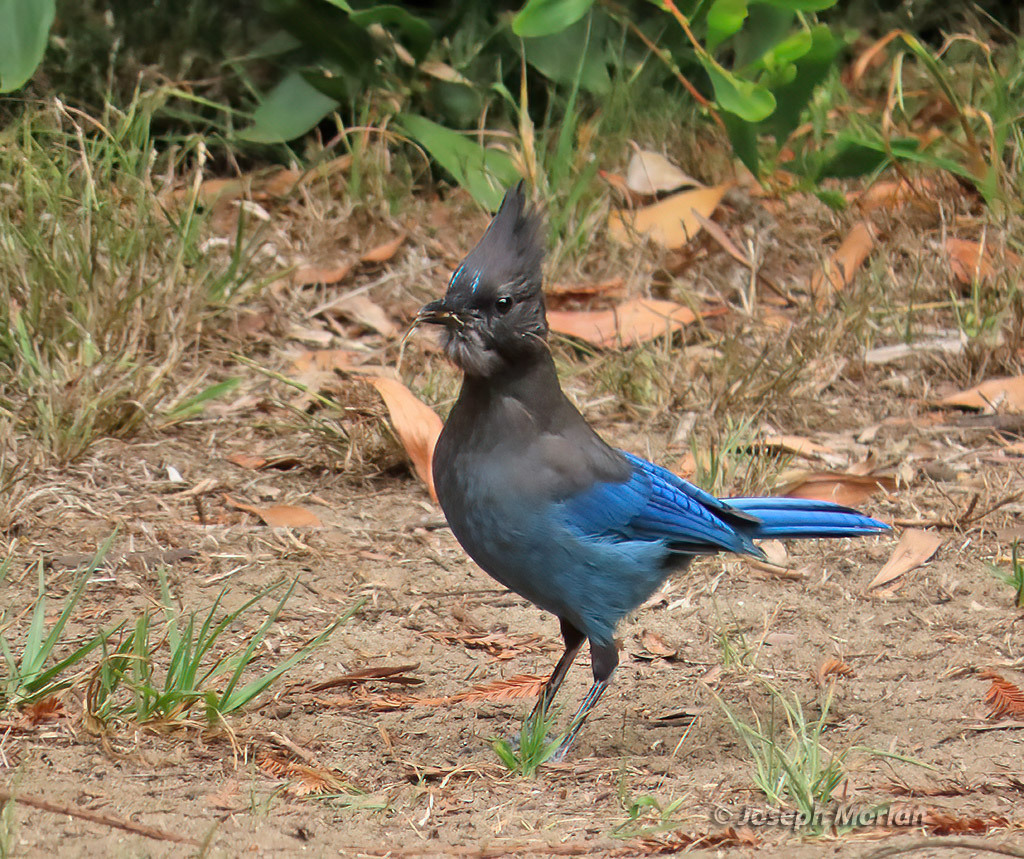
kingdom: Animalia
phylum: Chordata
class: Aves
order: Passeriformes
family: Corvidae
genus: Cyanocitta
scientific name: Cyanocitta stelleri
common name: Steller's jay
